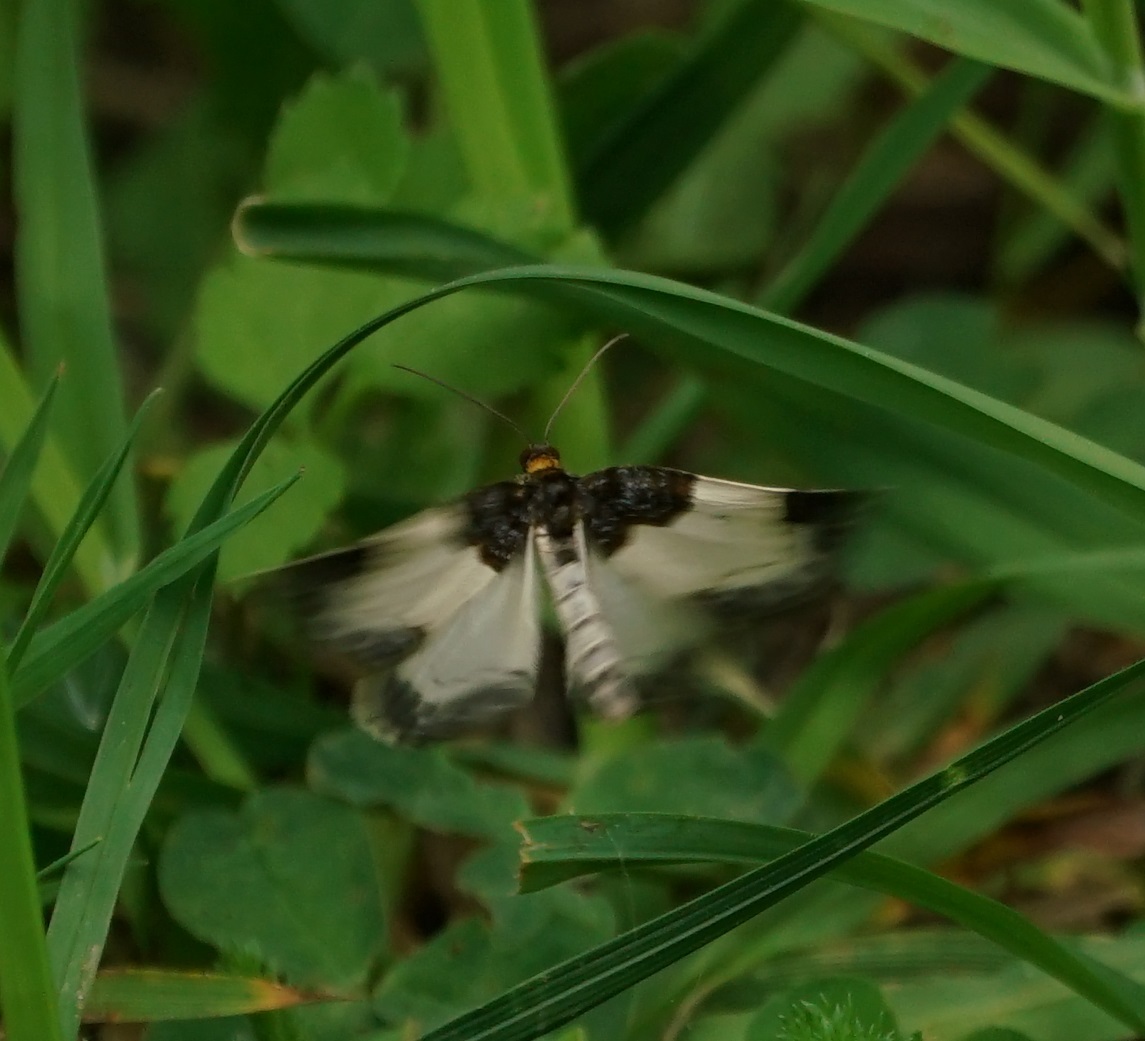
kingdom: Animalia
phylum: Arthropoda
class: Insecta
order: Lepidoptera
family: Geometridae
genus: Mesoleuca
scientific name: Mesoleuca albicillata
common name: Beautiful carpet
